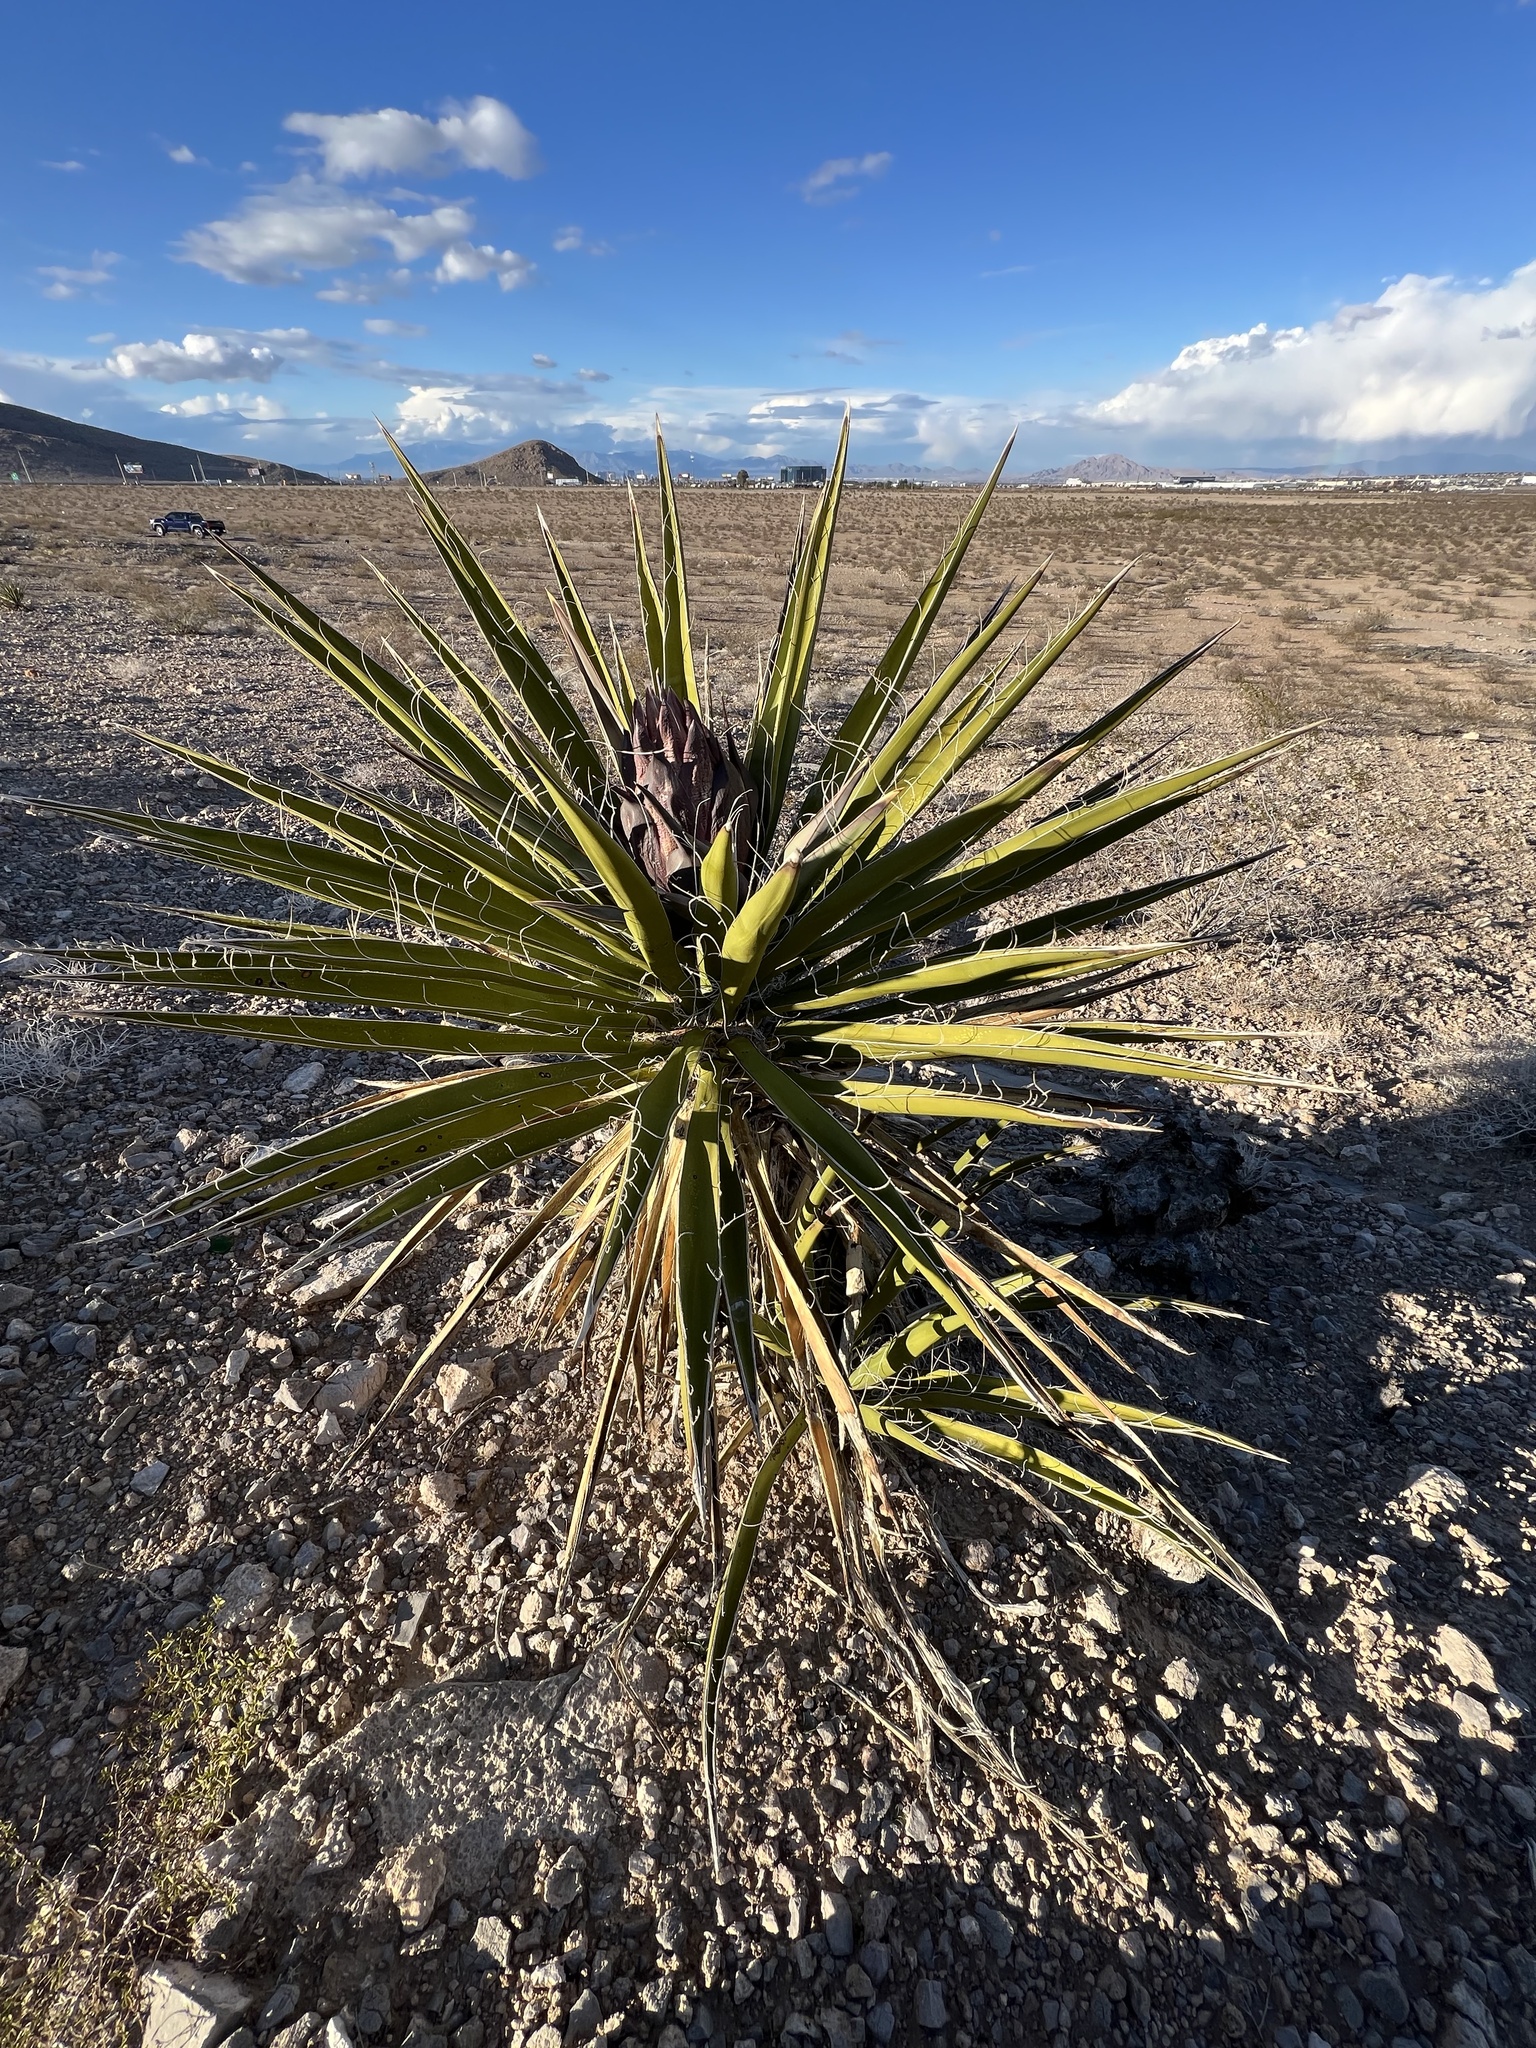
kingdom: Plantae
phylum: Tracheophyta
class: Liliopsida
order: Asparagales
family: Asparagaceae
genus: Yucca
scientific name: Yucca schidigera
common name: Mojave yucca
